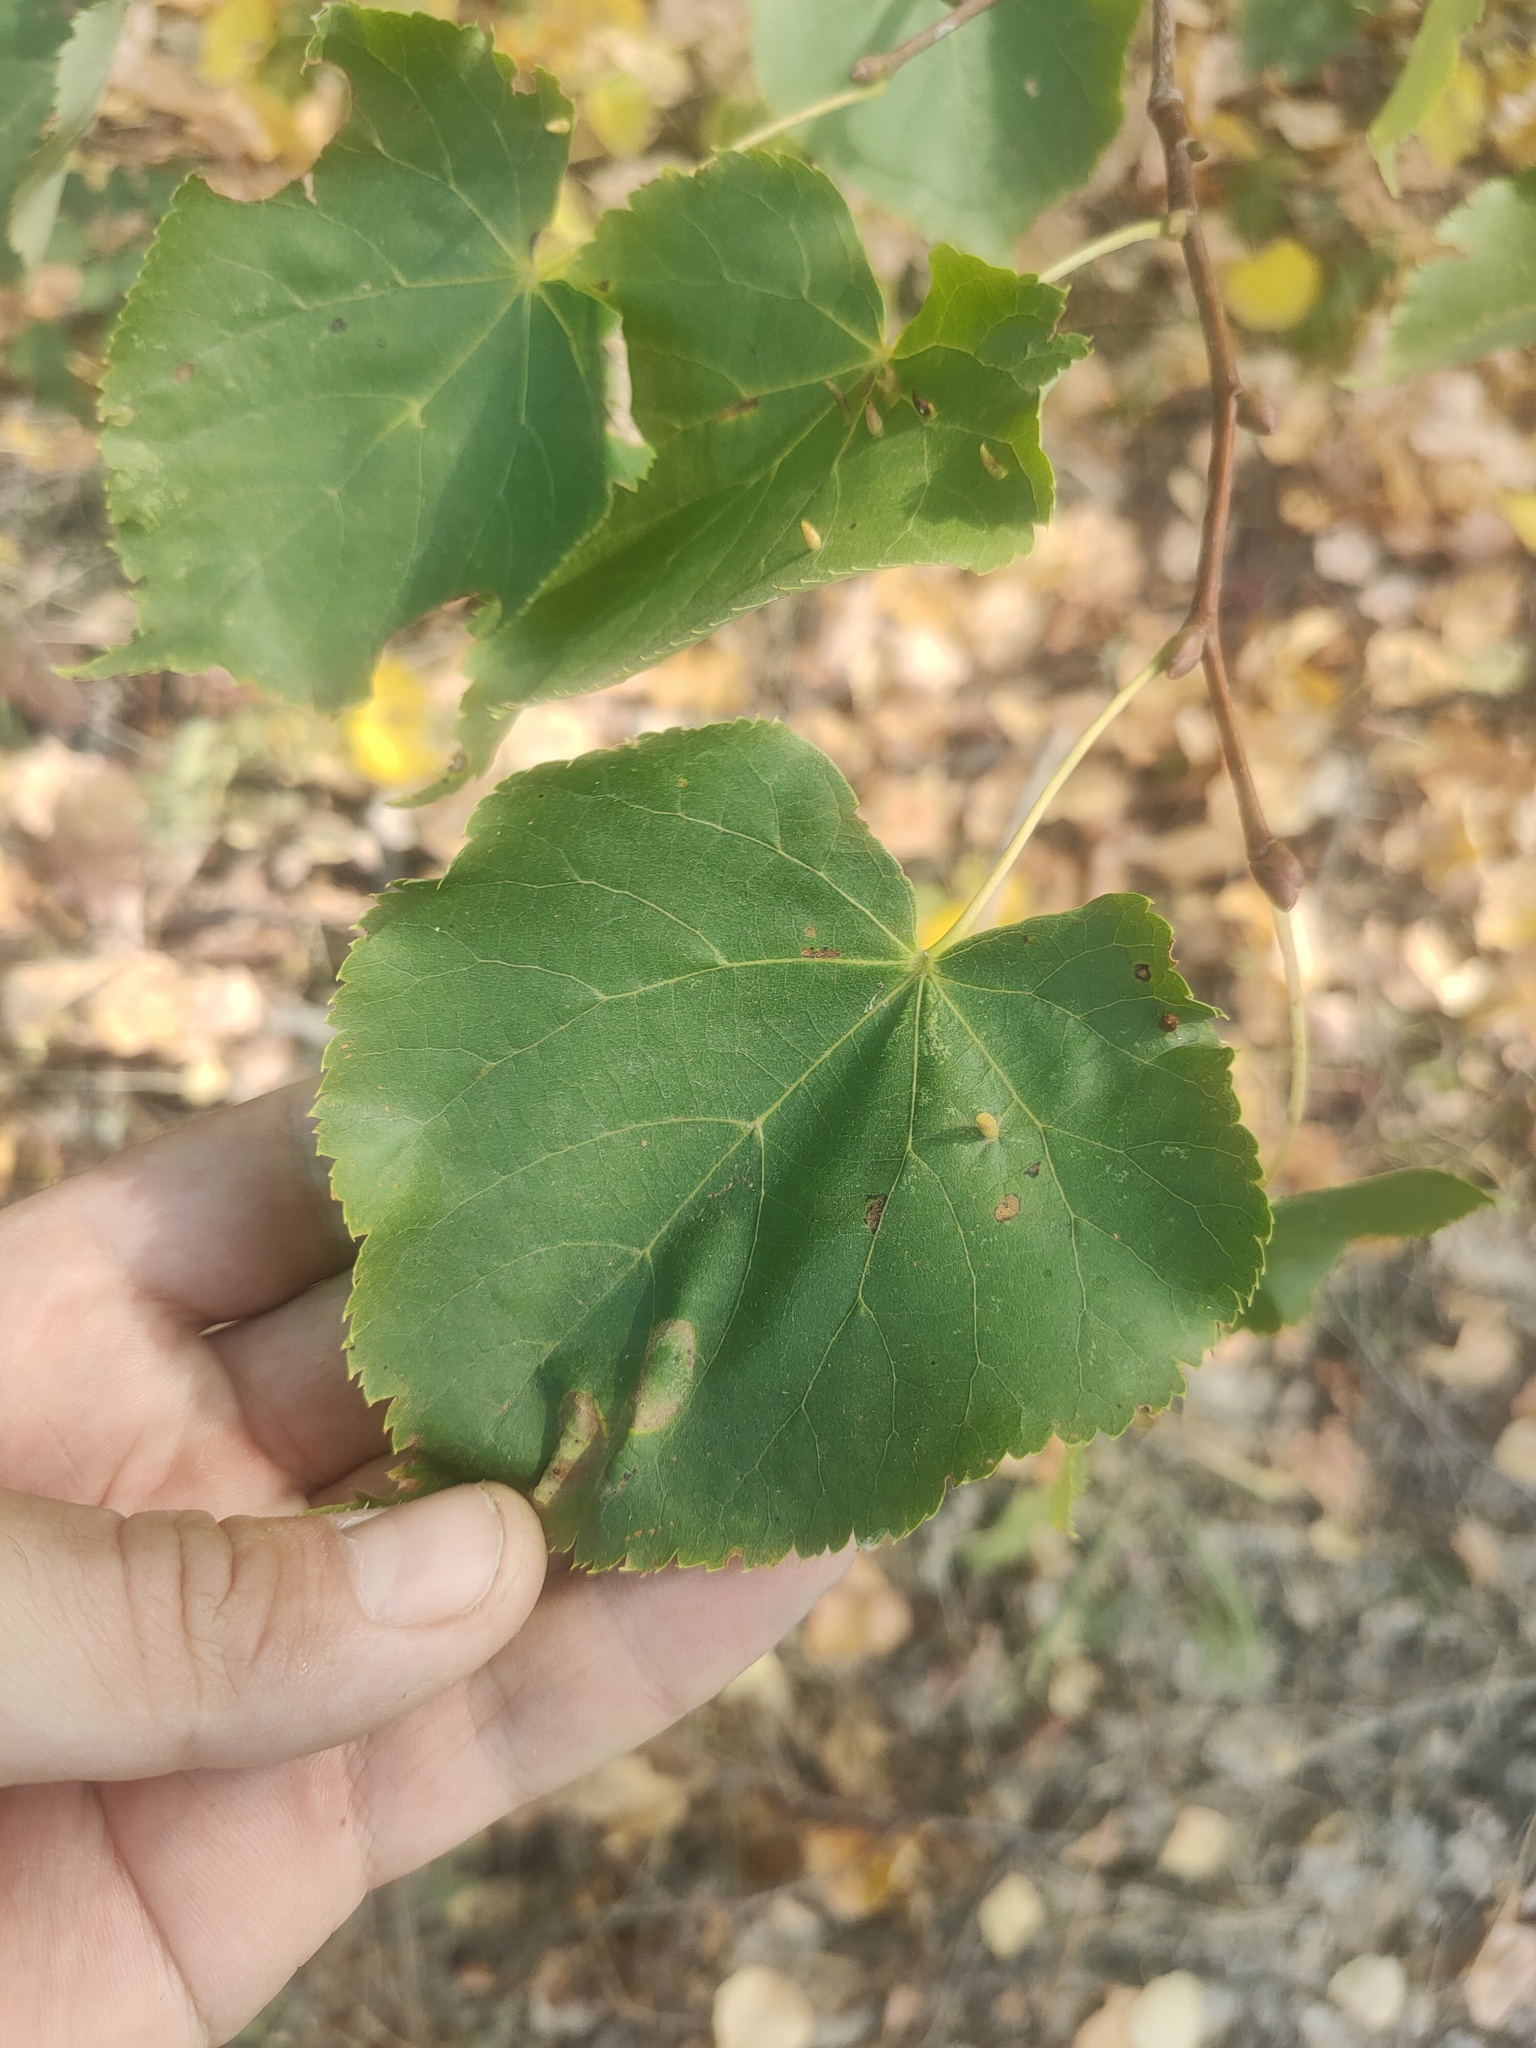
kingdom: Plantae
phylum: Tracheophyta
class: Magnoliopsida
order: Malvales
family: Malvaceae
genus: Tilia
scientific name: Tilia cordata
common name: Small-leaved lime
